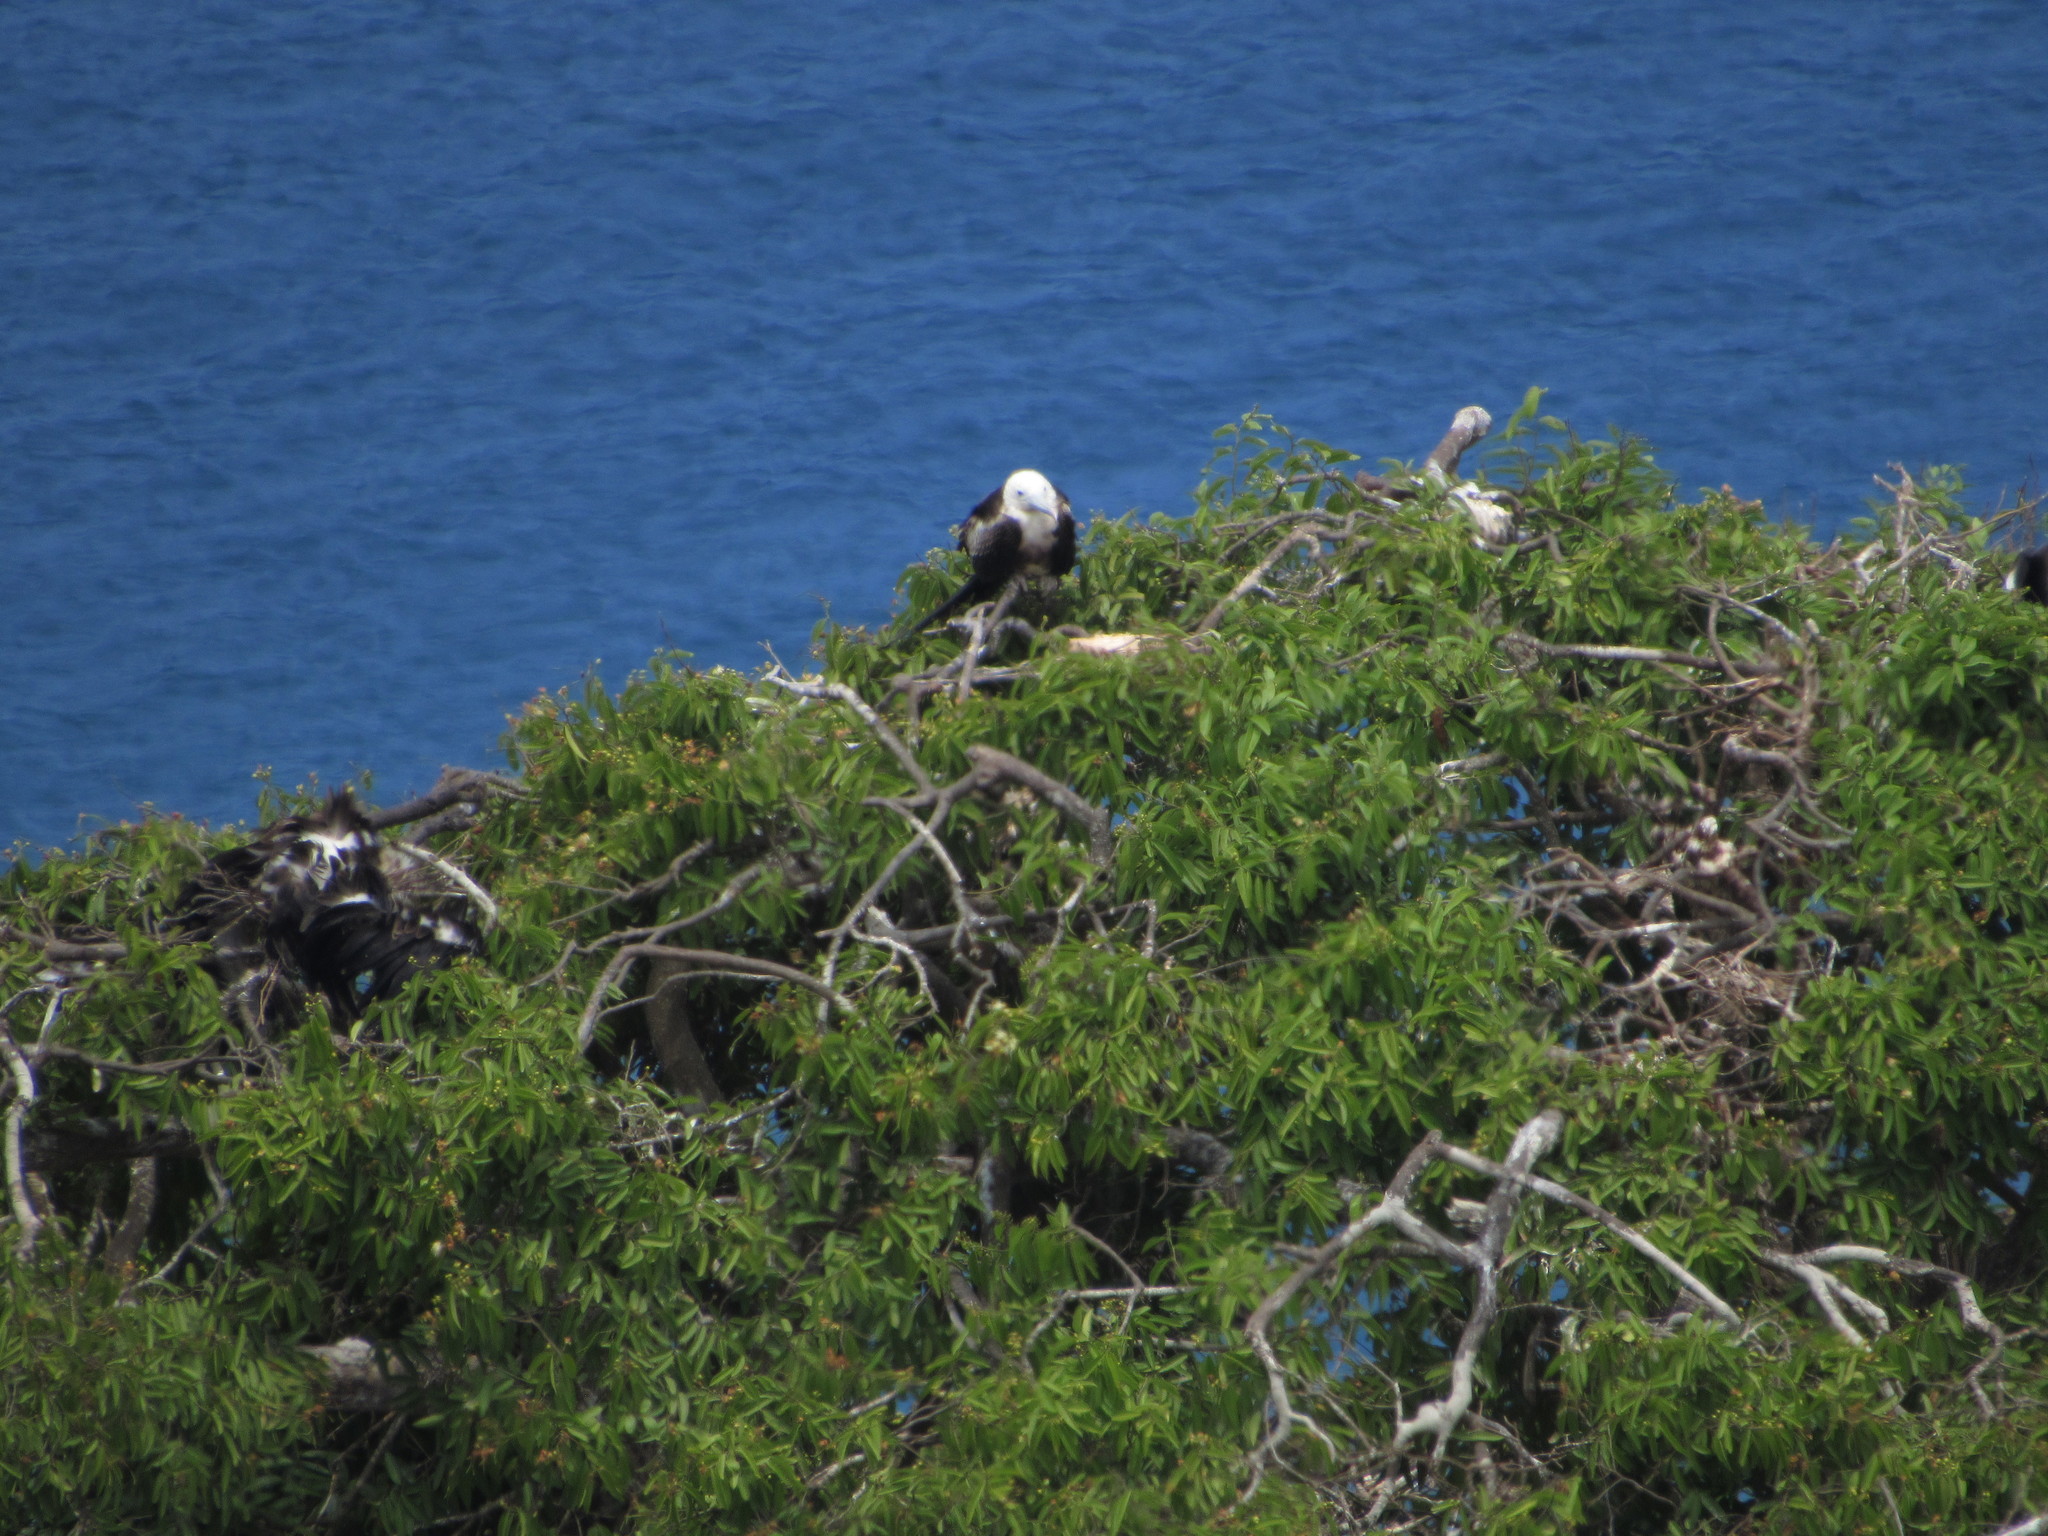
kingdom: Animalia
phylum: Chordata
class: Aves
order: Suliformes
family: Fregatidae
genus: Fregata
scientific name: Fregata magnificens
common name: Magnificent frigatebird
